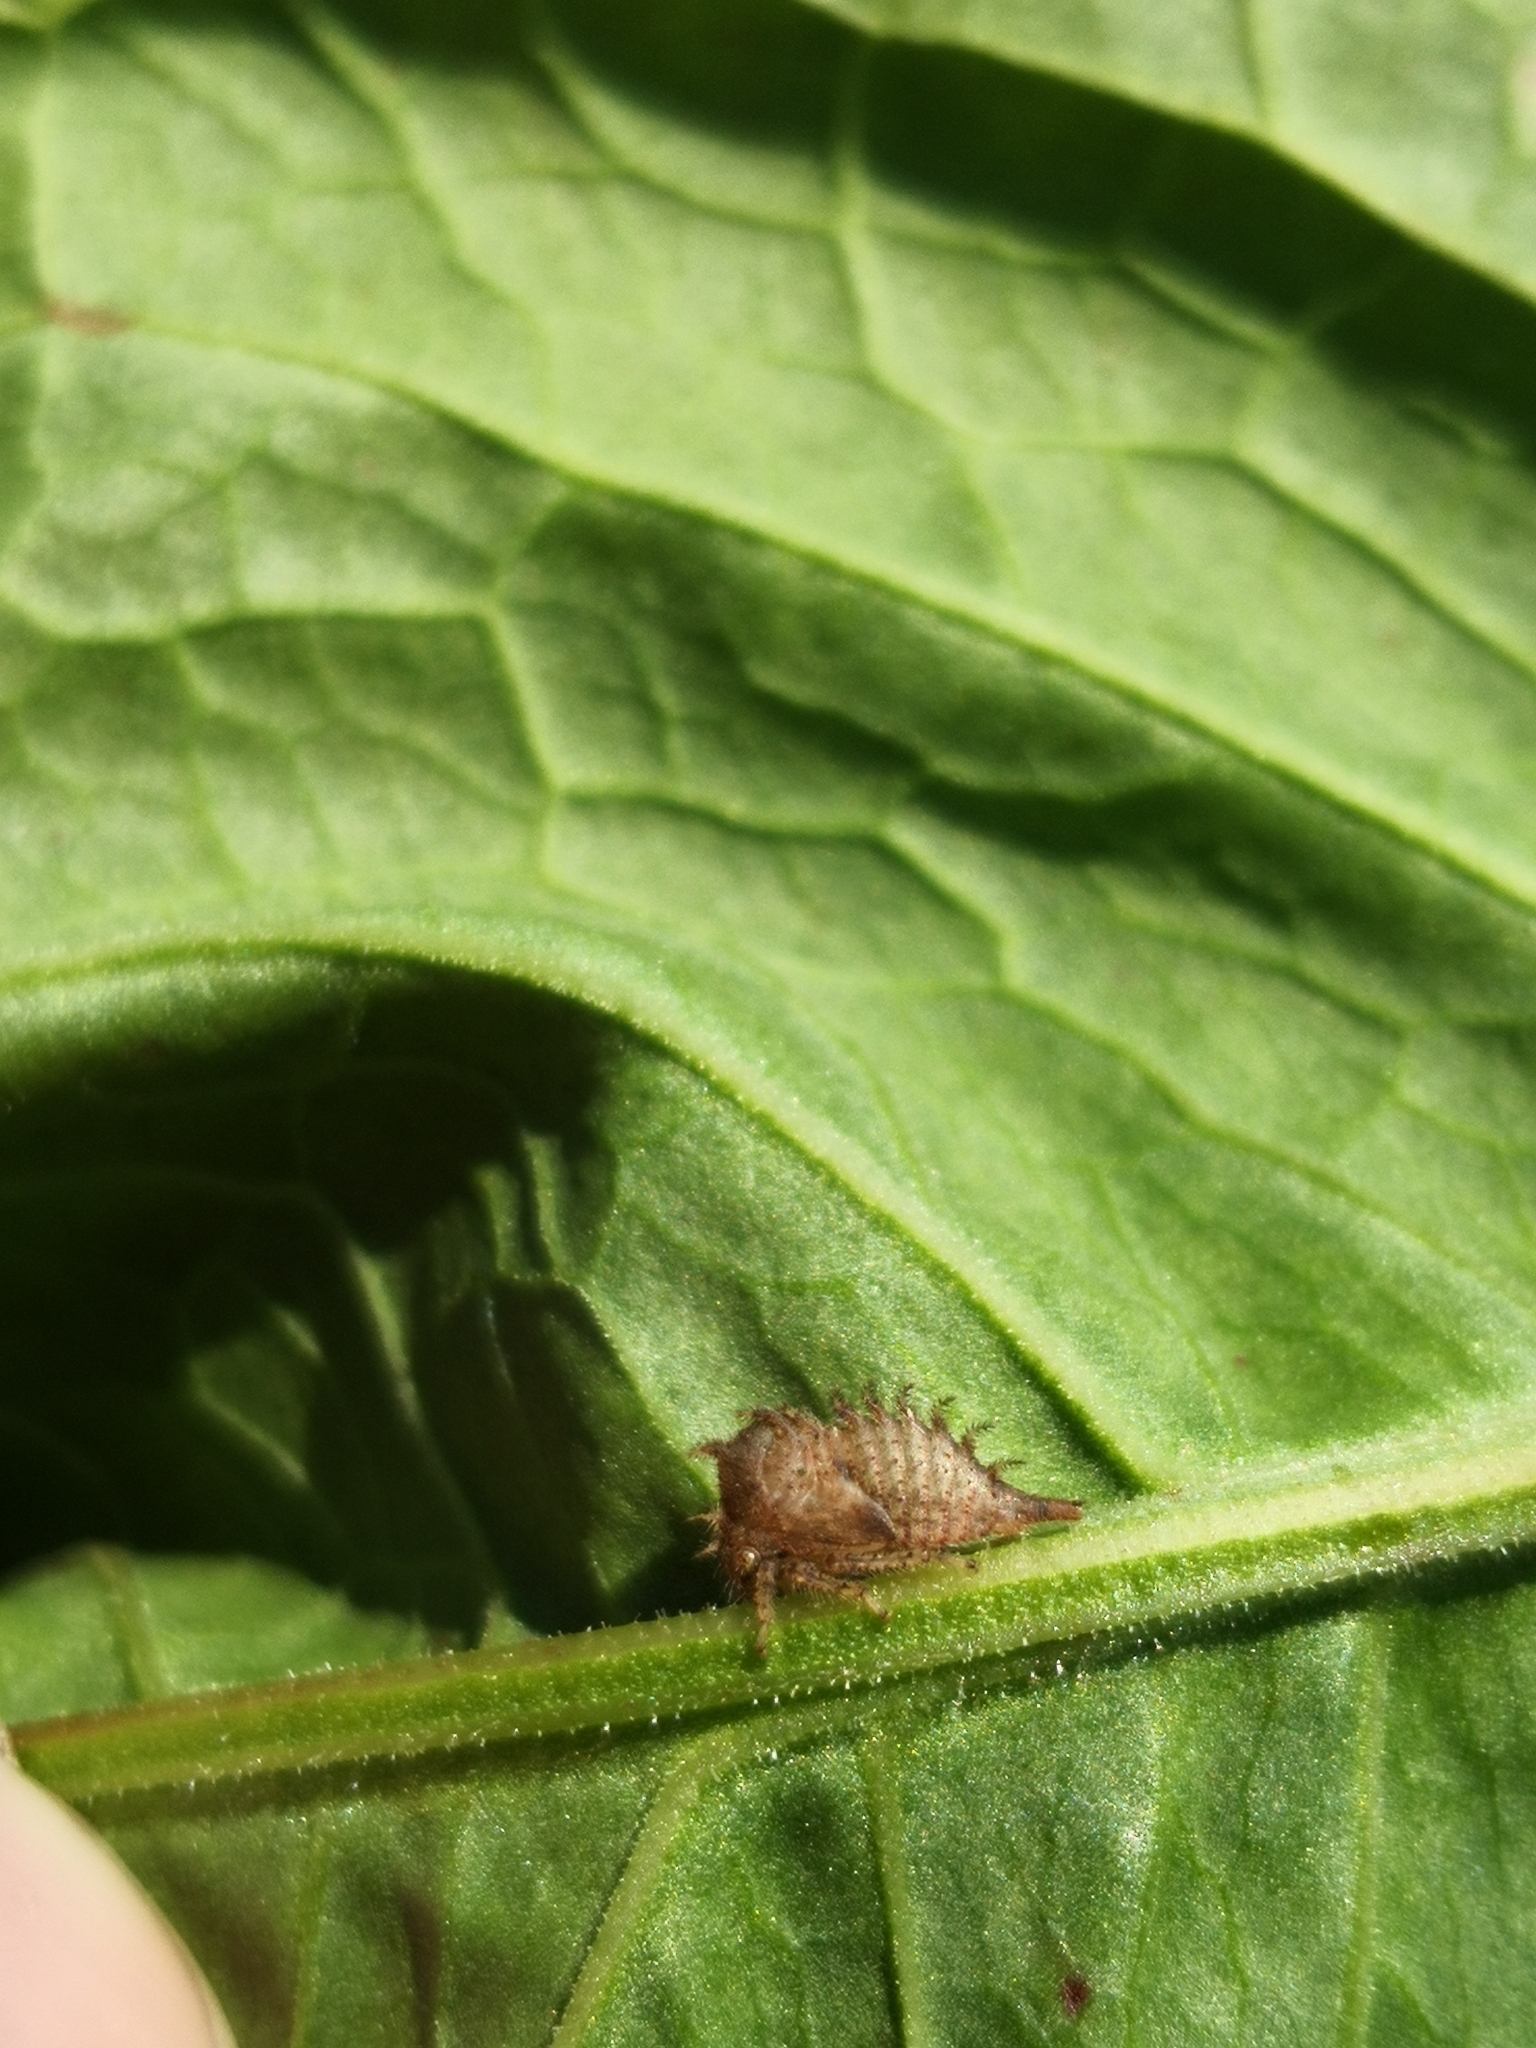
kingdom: Animalia
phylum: Arthropoda
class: Insecta
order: Hemiptera
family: Membracidae
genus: Stictocephala
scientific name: Stictocephala bisonia
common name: American buffalo treehopper
